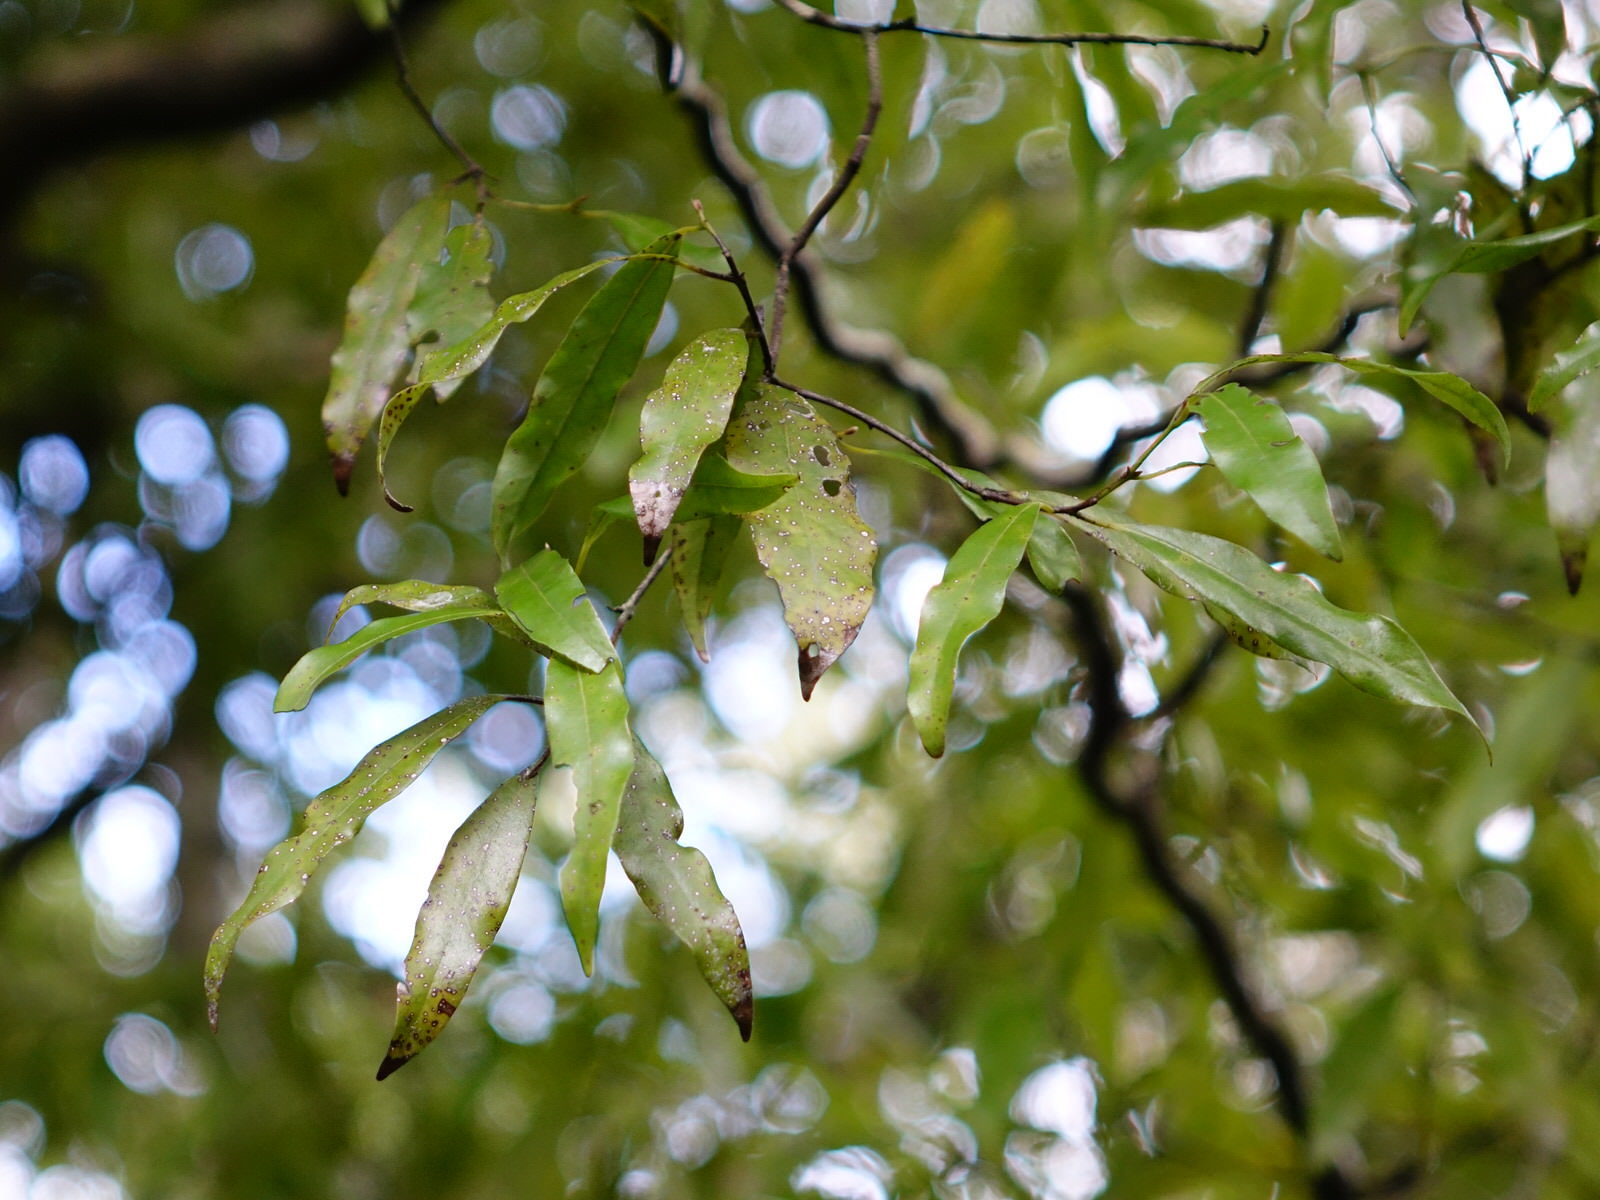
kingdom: Plantae
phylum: Tracheophyta
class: Magnoliopsida
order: Laurales
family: Lauraceae
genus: Beilschmiedia
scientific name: Beilschmiedia tawa
